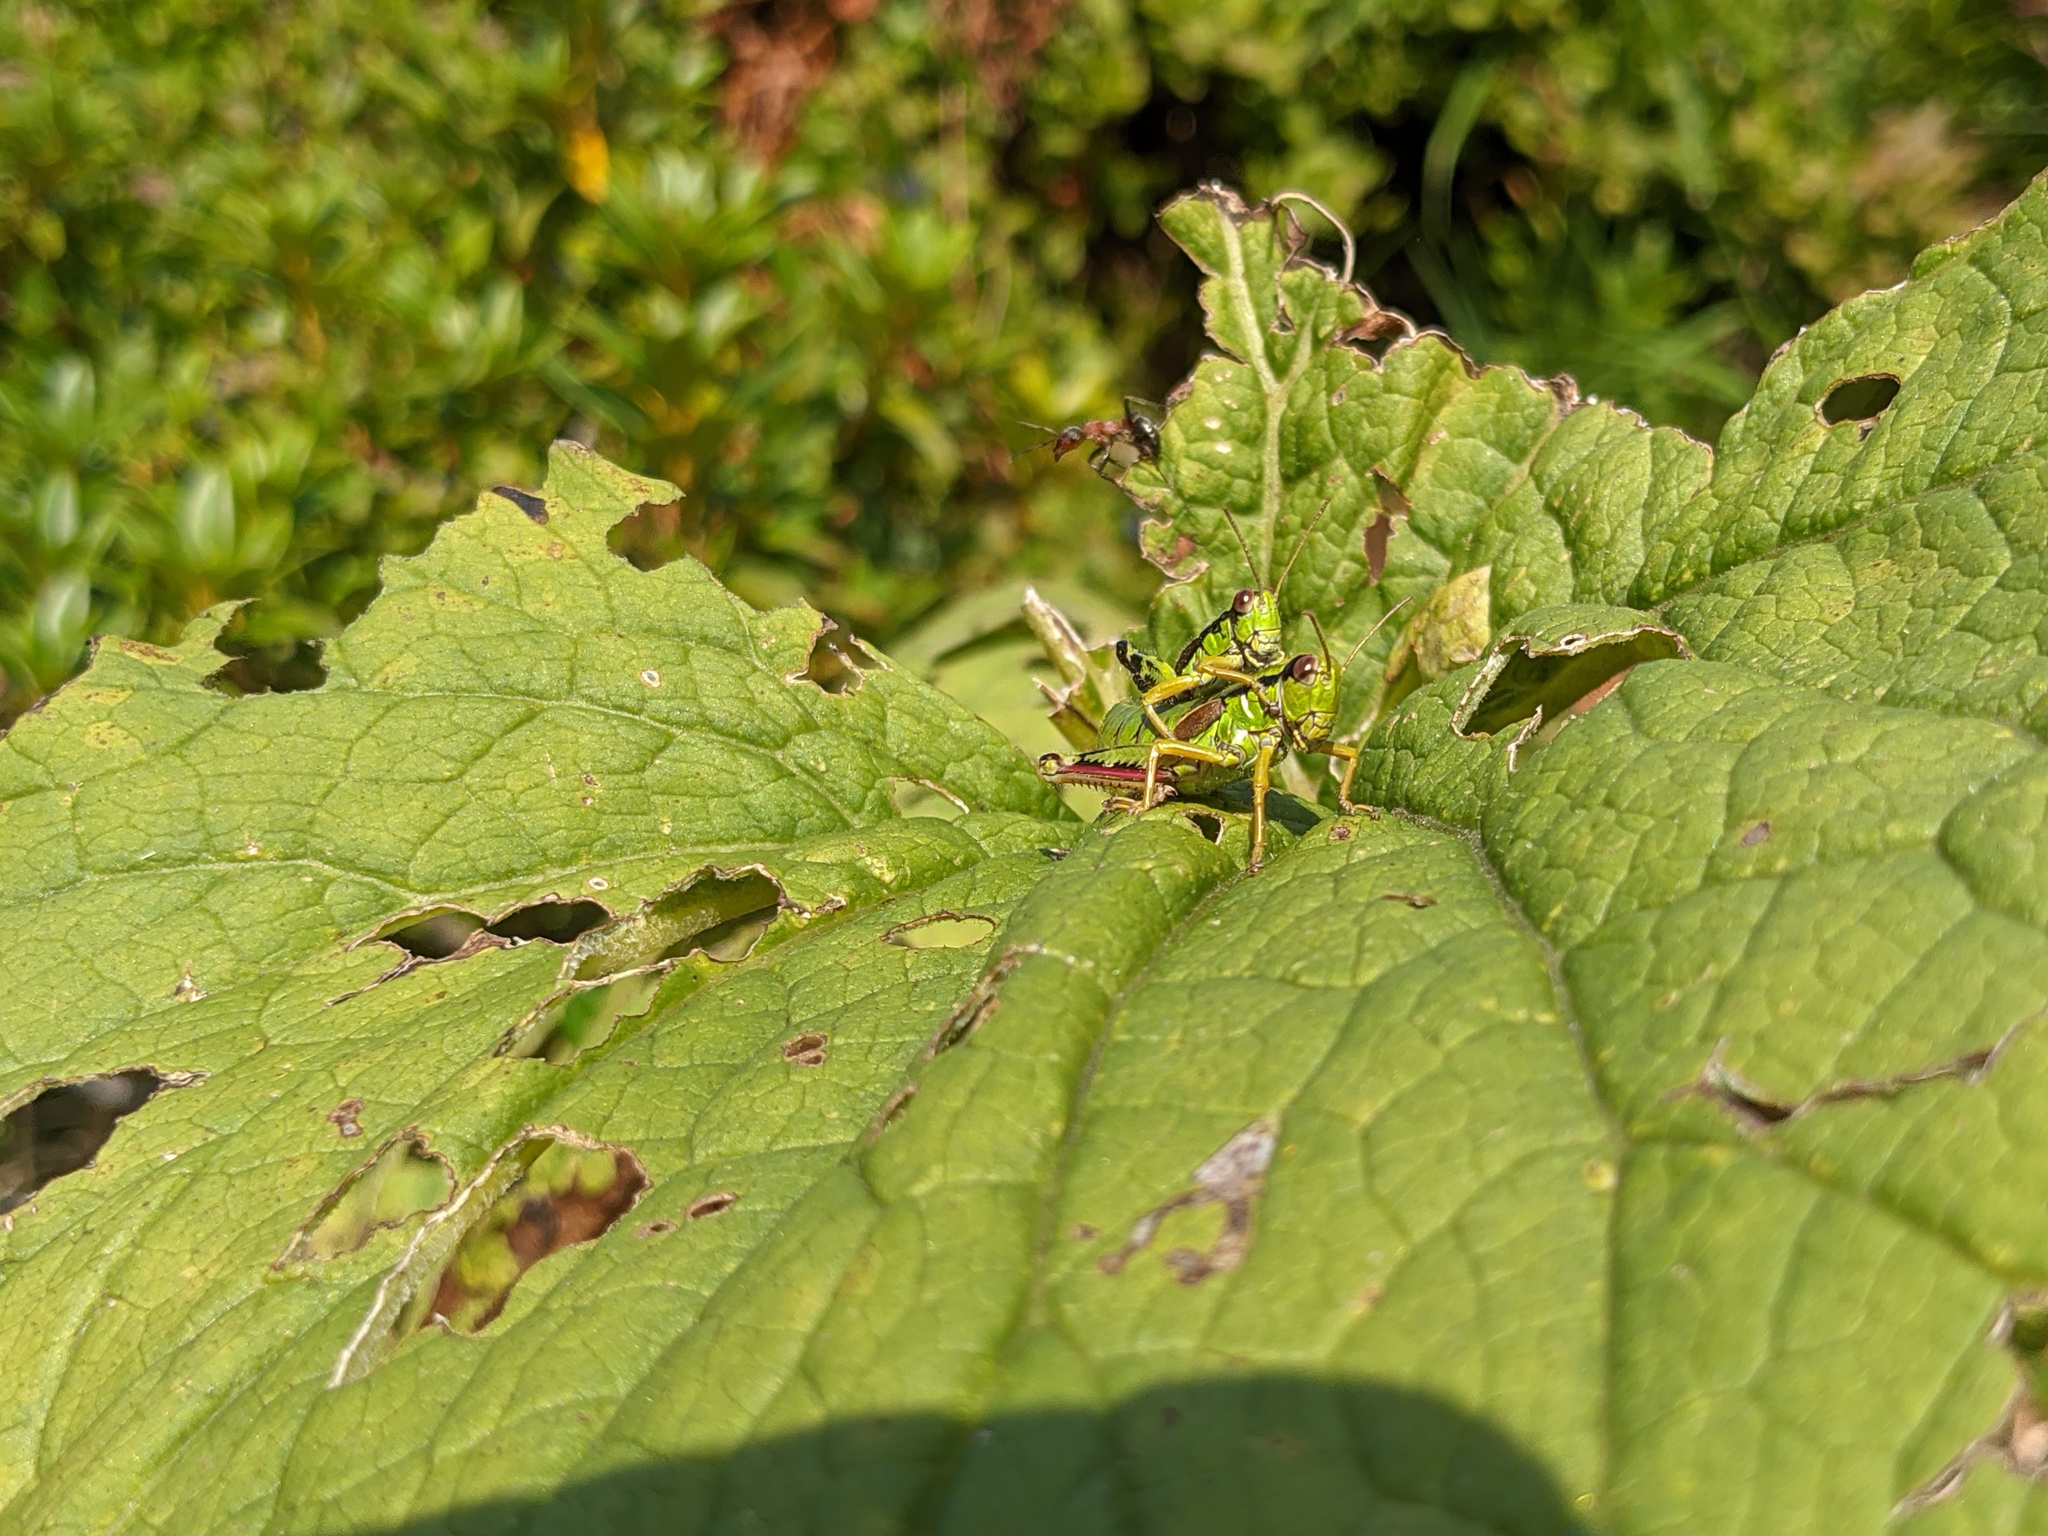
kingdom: Animalia
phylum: Arthropoda
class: Insecta
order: Orthoptera
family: Acrididae
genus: Miramella
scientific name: Miramella alpina
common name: Green mountain grasshopper
